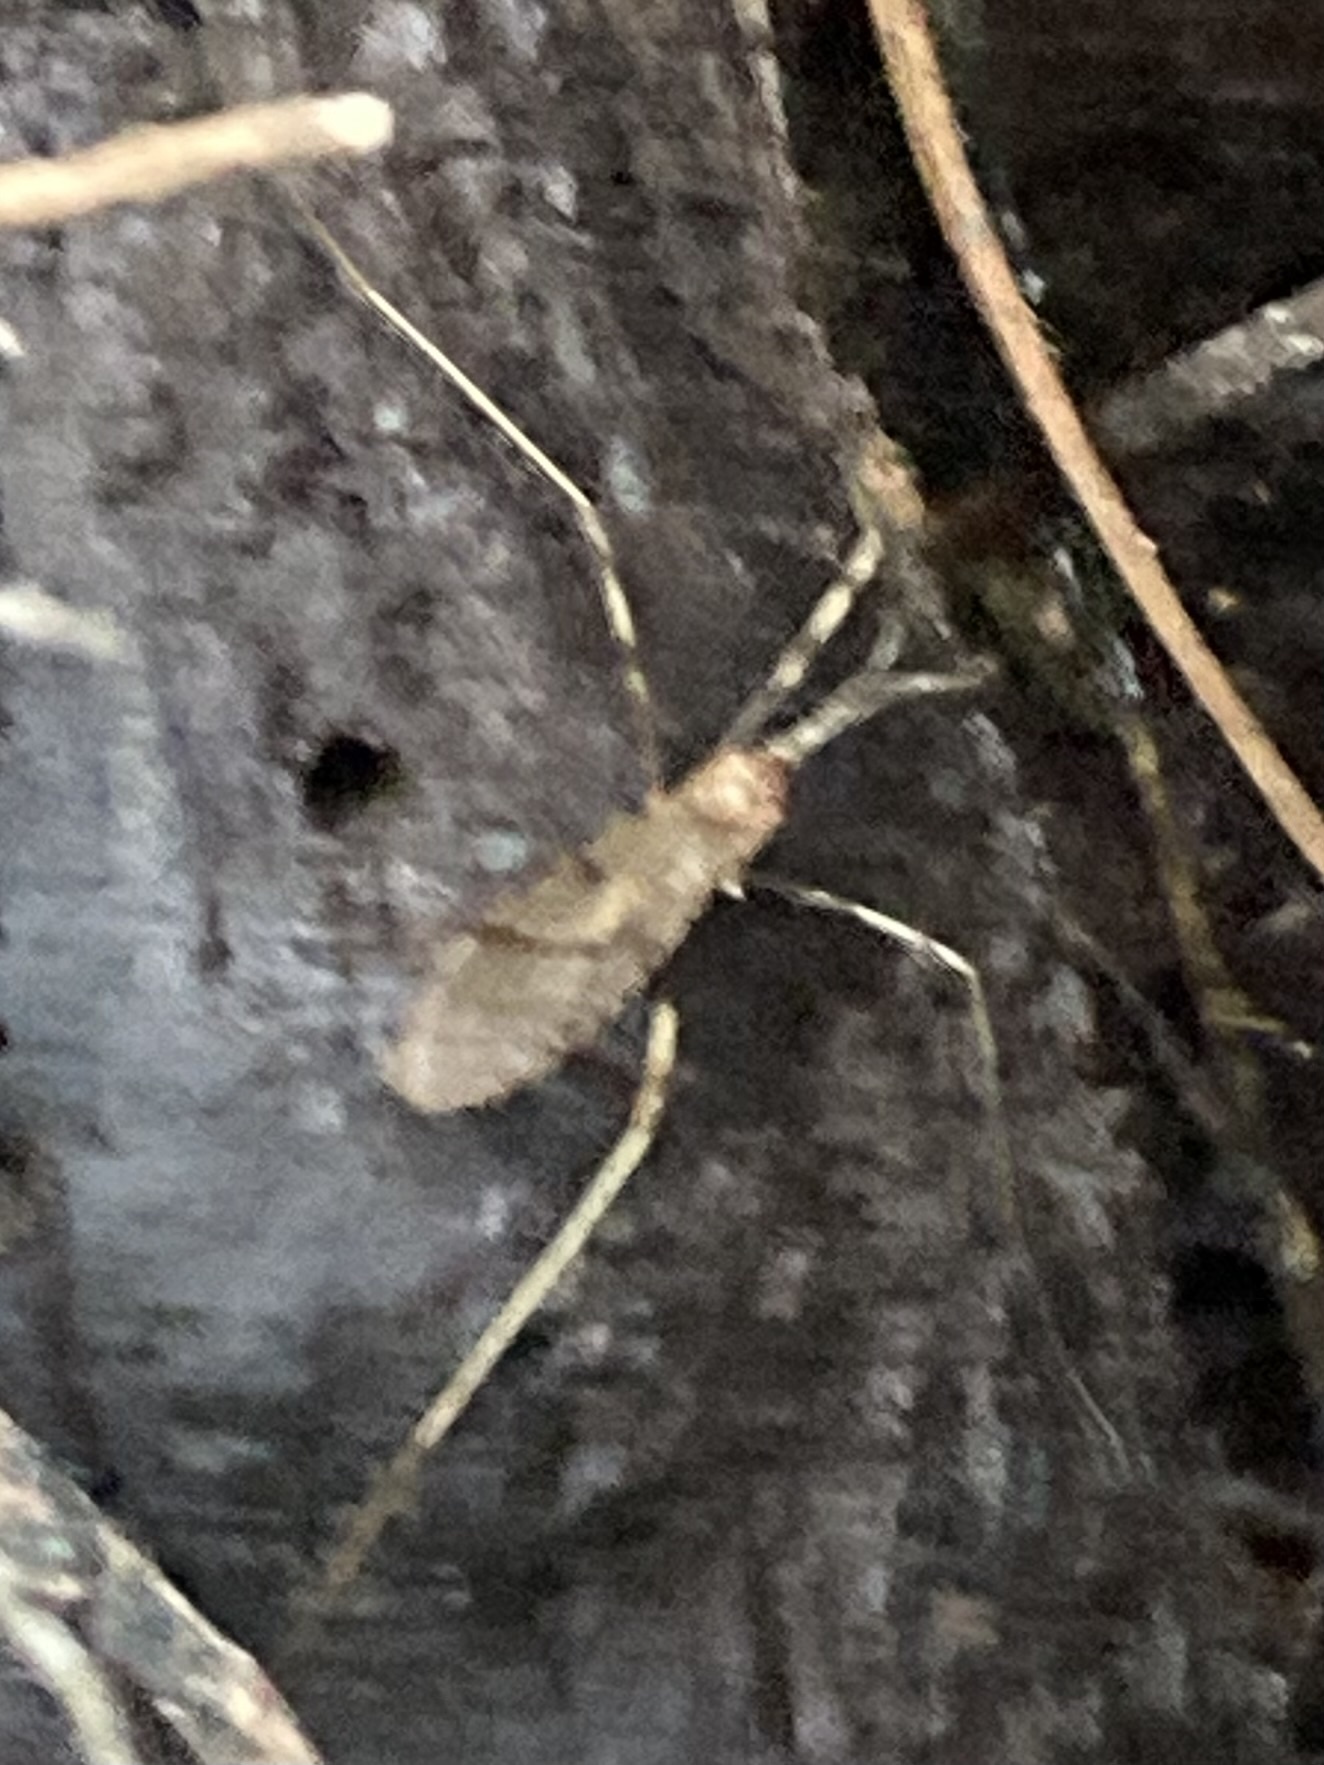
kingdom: Animalia
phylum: Arthropoda
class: Insecta
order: Diptera
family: Limoniidae
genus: Rhamphophila
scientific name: Rhamphophila sinistra
